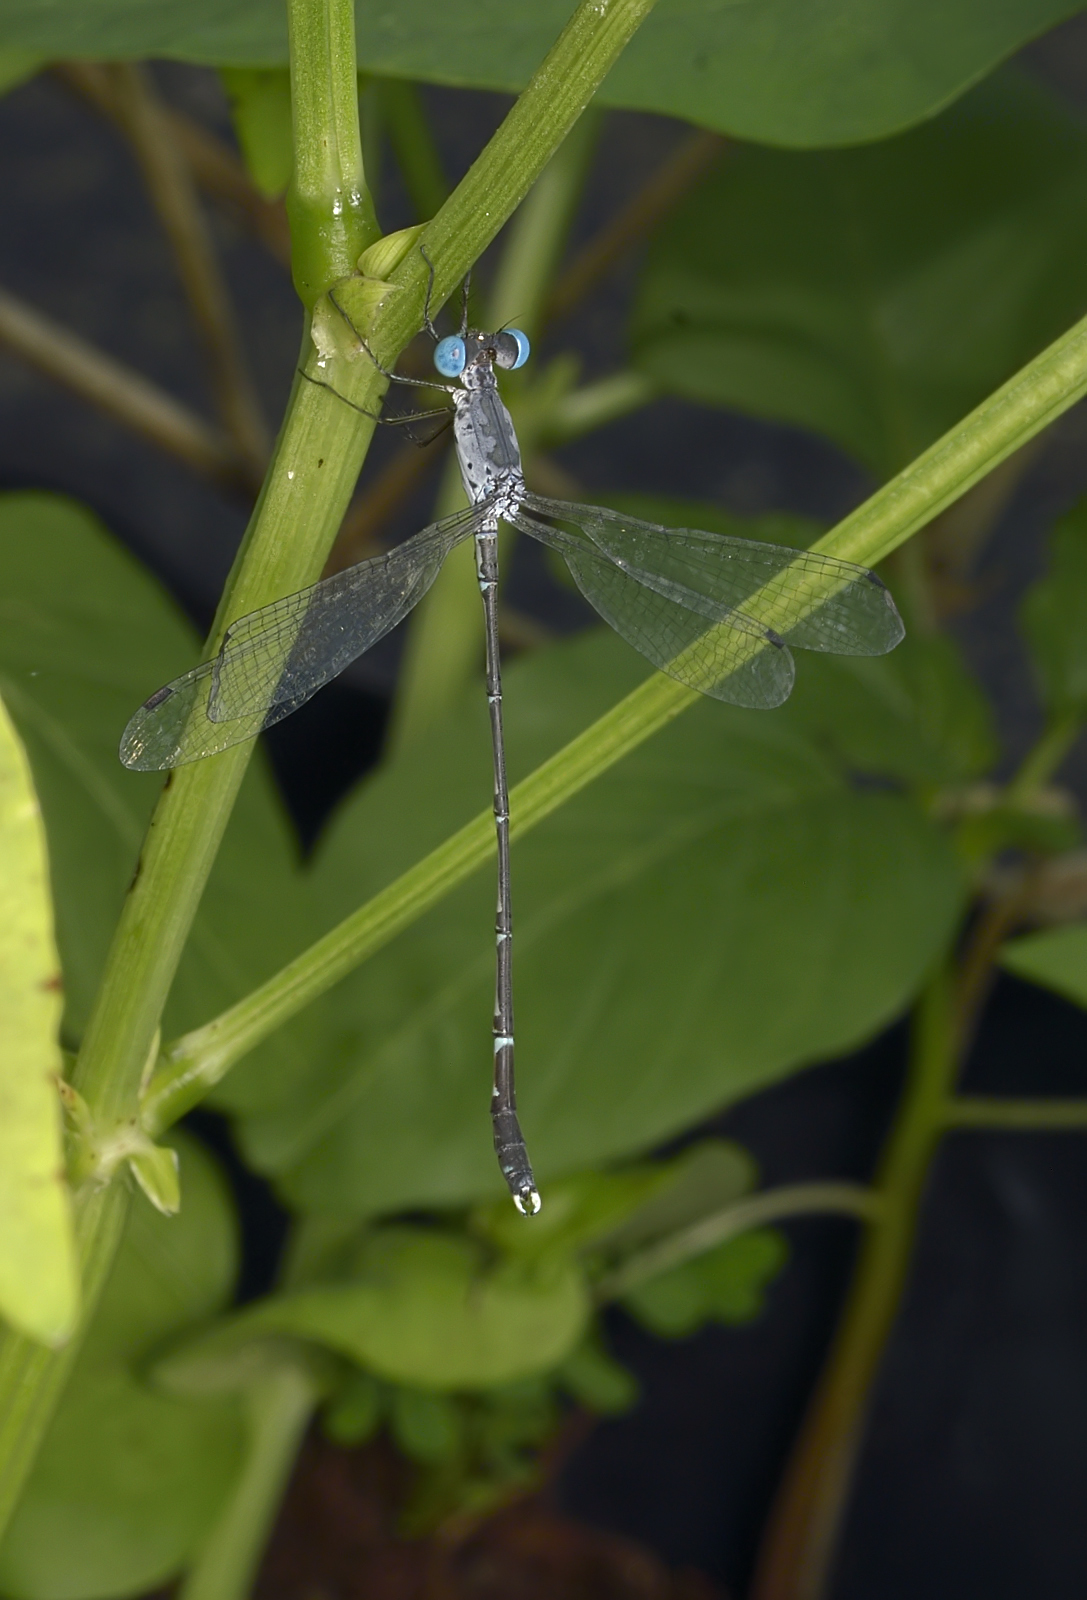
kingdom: Animalia
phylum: Arthropoda
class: Insecta
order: Odonata
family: Lestidae
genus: Lestes
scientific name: Lestes praemorsus
